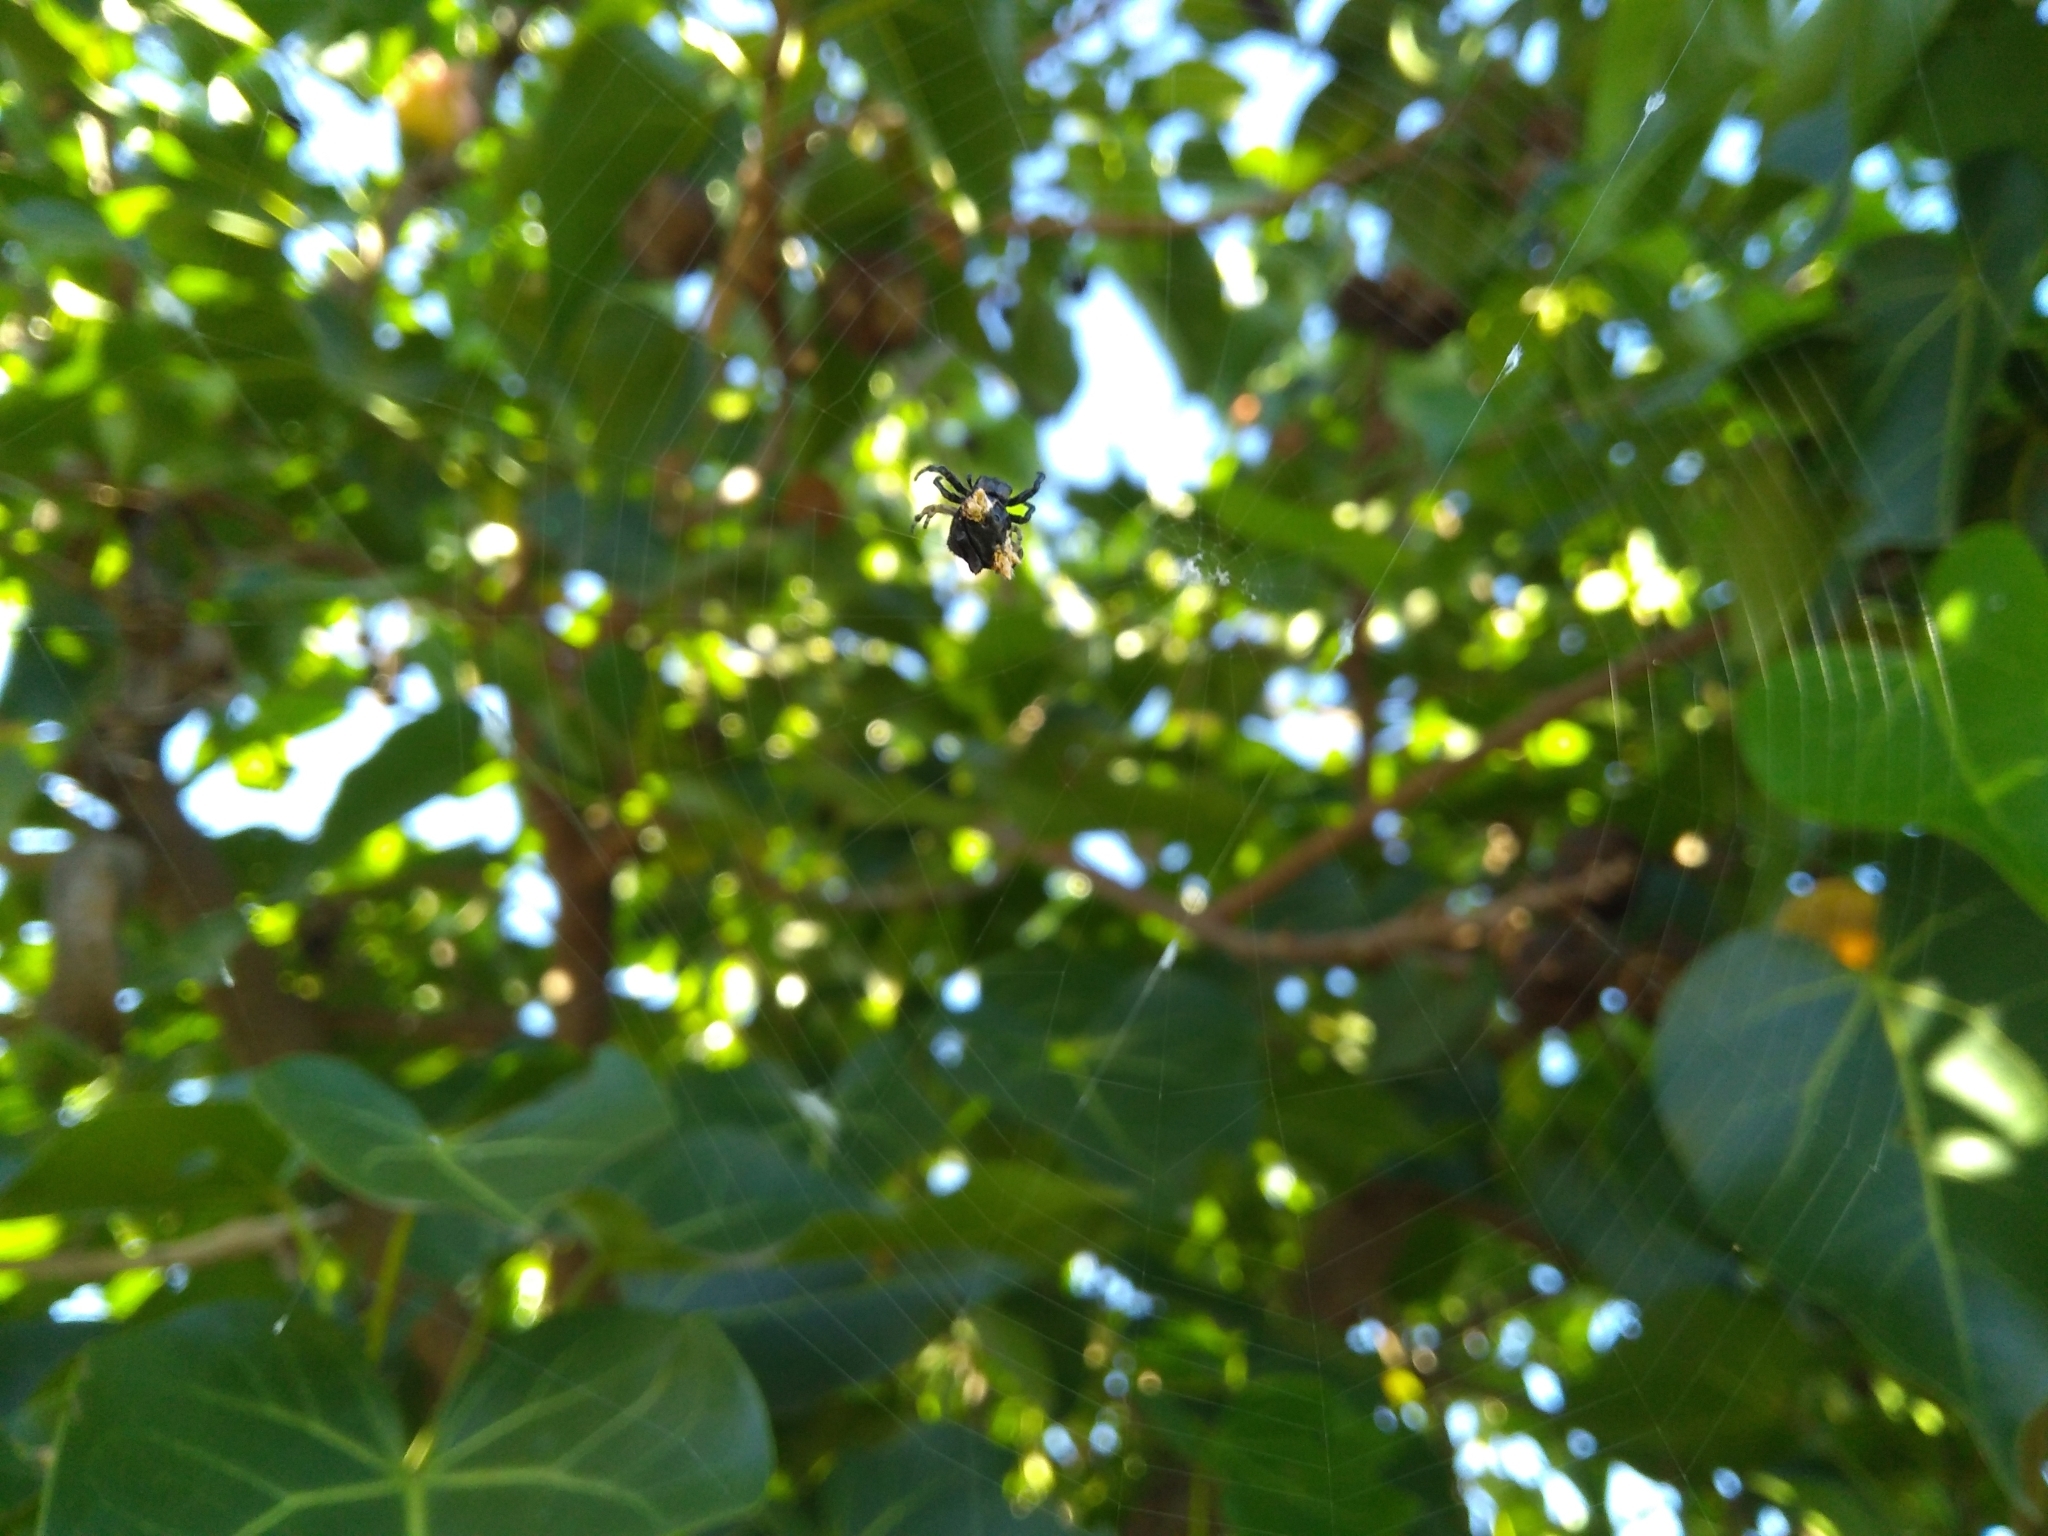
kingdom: Animalia
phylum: Arthropoda
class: Arachnida
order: Araneae
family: Araneidae
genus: Gasteracantha
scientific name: Gasteracantha mediofusca
